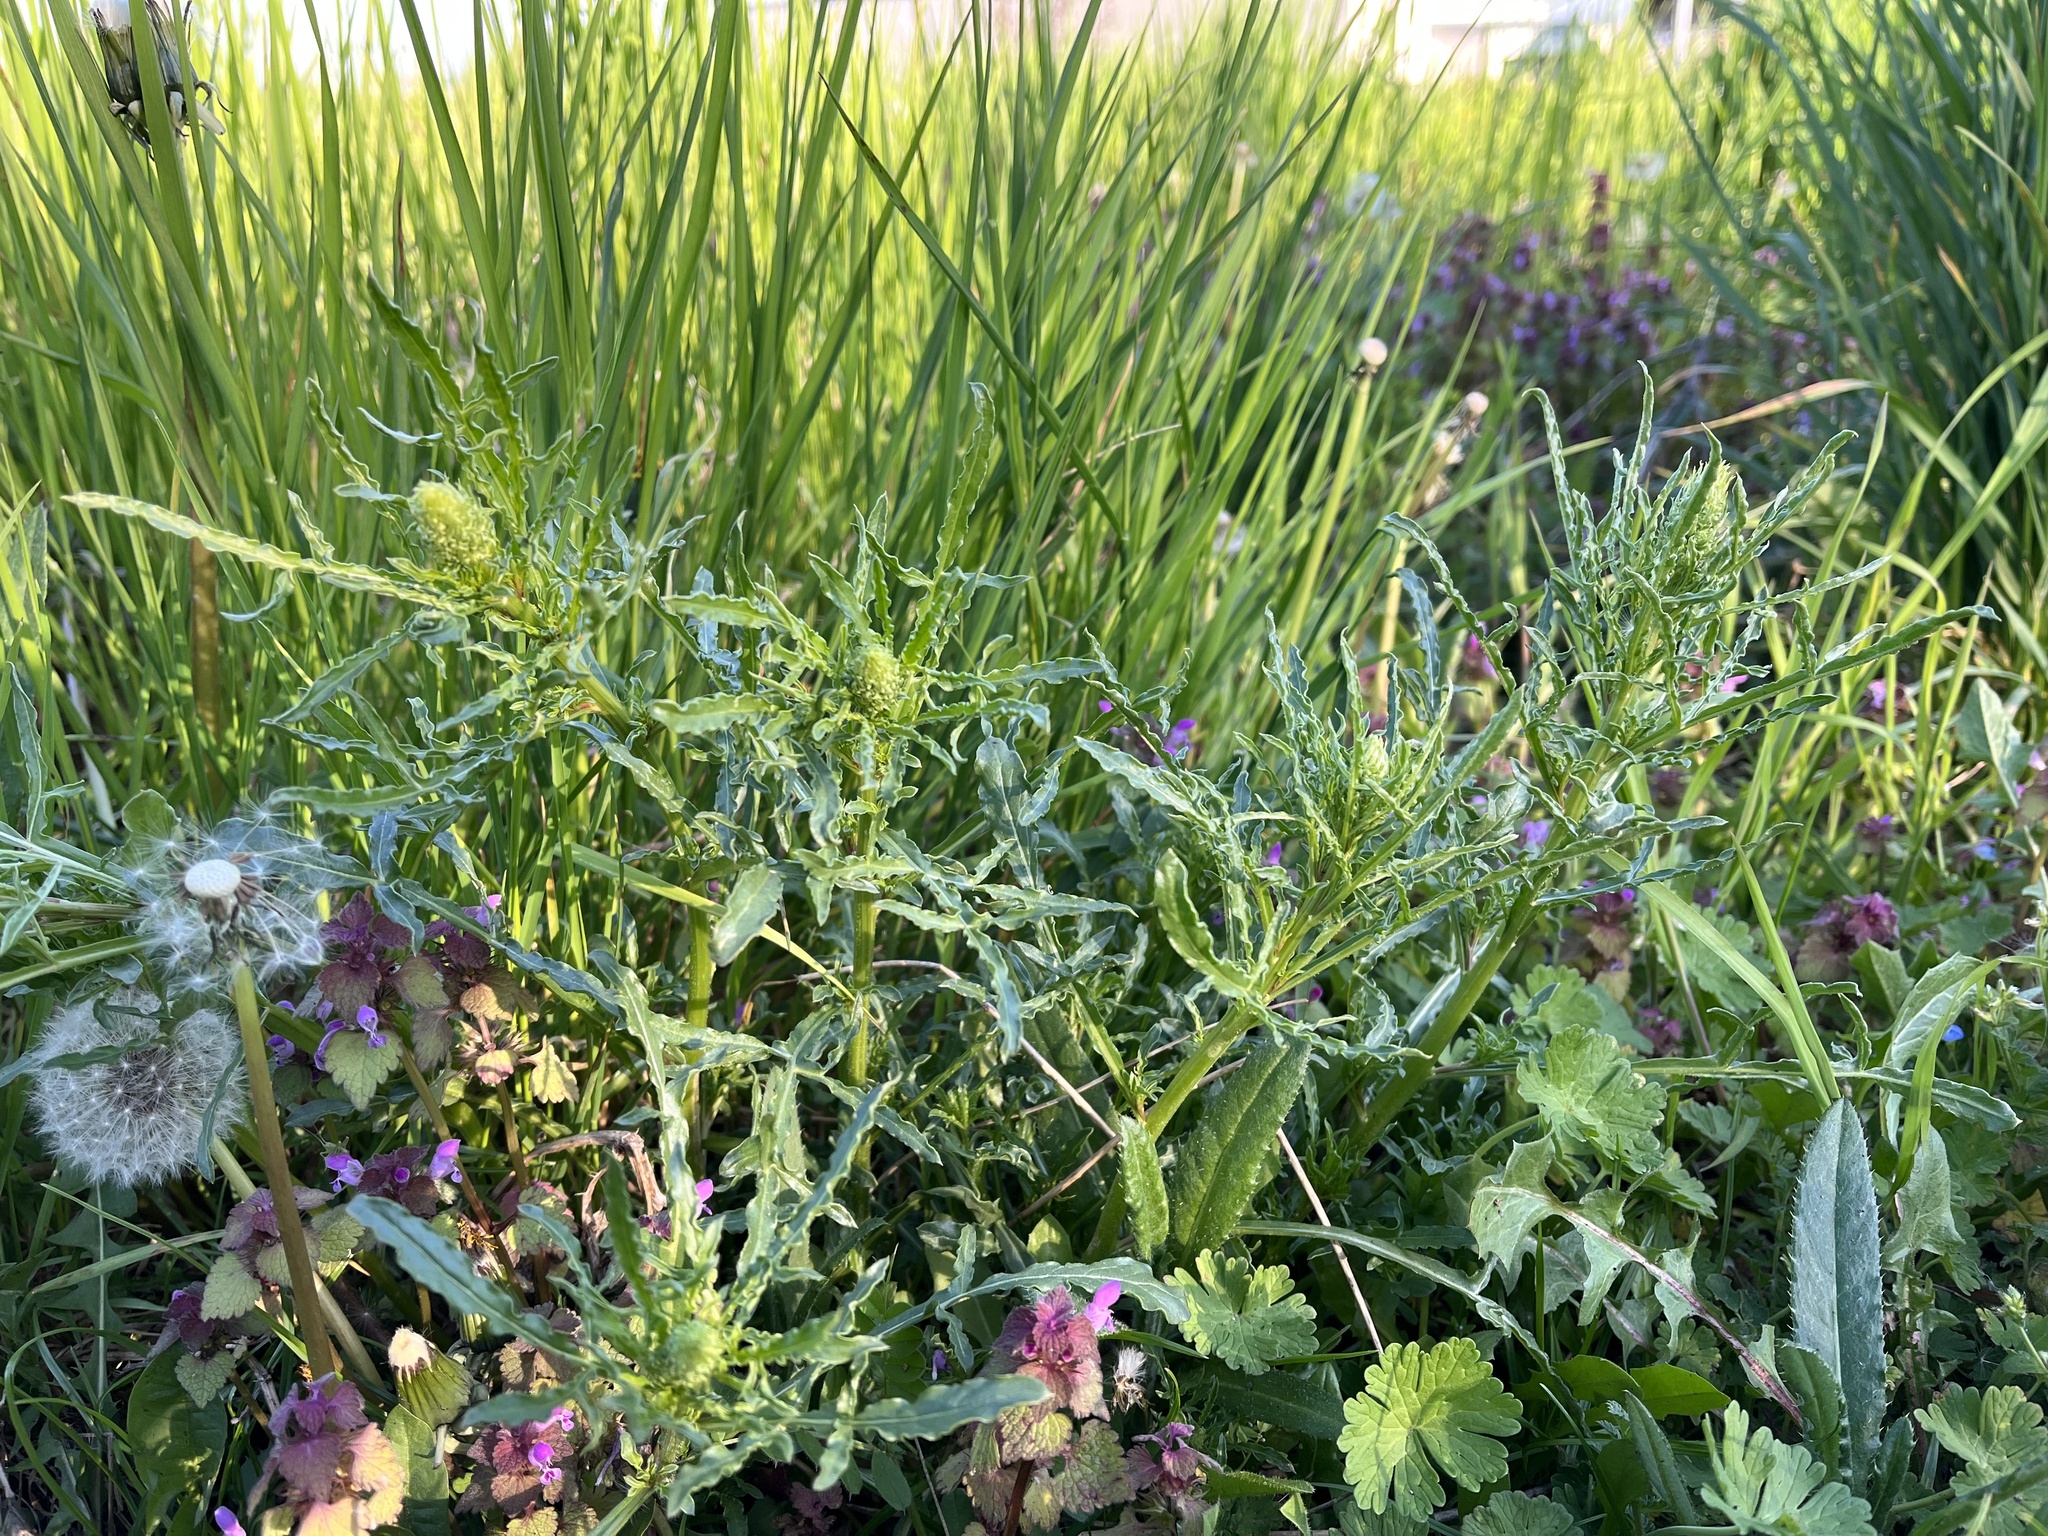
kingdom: Plantae
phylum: Tracheophyta
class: Magnoliopsida
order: Brassicales
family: Resedaceae
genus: Reseda
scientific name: Reseda lutea
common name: Wild mignonette
